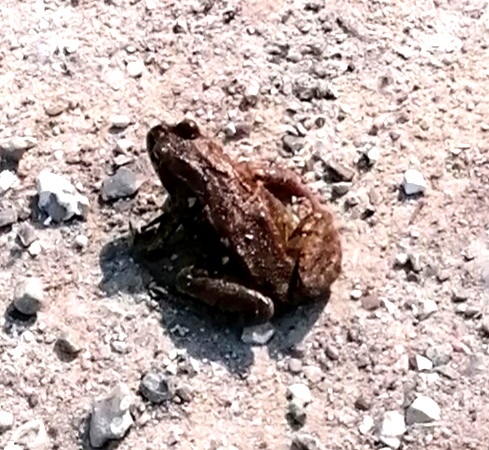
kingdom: Animalia
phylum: Chordata
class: Amphibia
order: Anura
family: Ranidae
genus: Rana
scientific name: Rana temporaria
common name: Common frog
